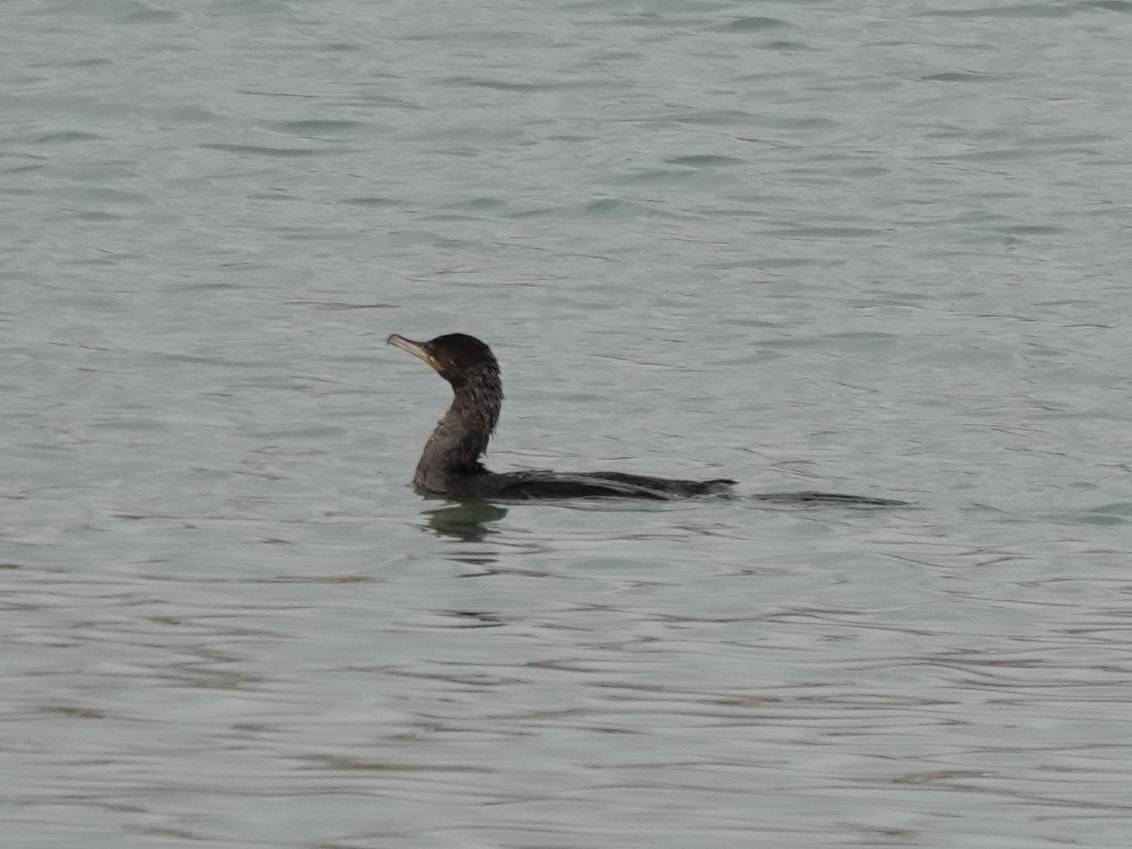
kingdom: Animalia
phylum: Chordata
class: Aves
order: Suliformes
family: Phalacrocoracidae
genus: Phalacrocorax
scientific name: Phalacrocorax brasilianus
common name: Neotropic cormorant
